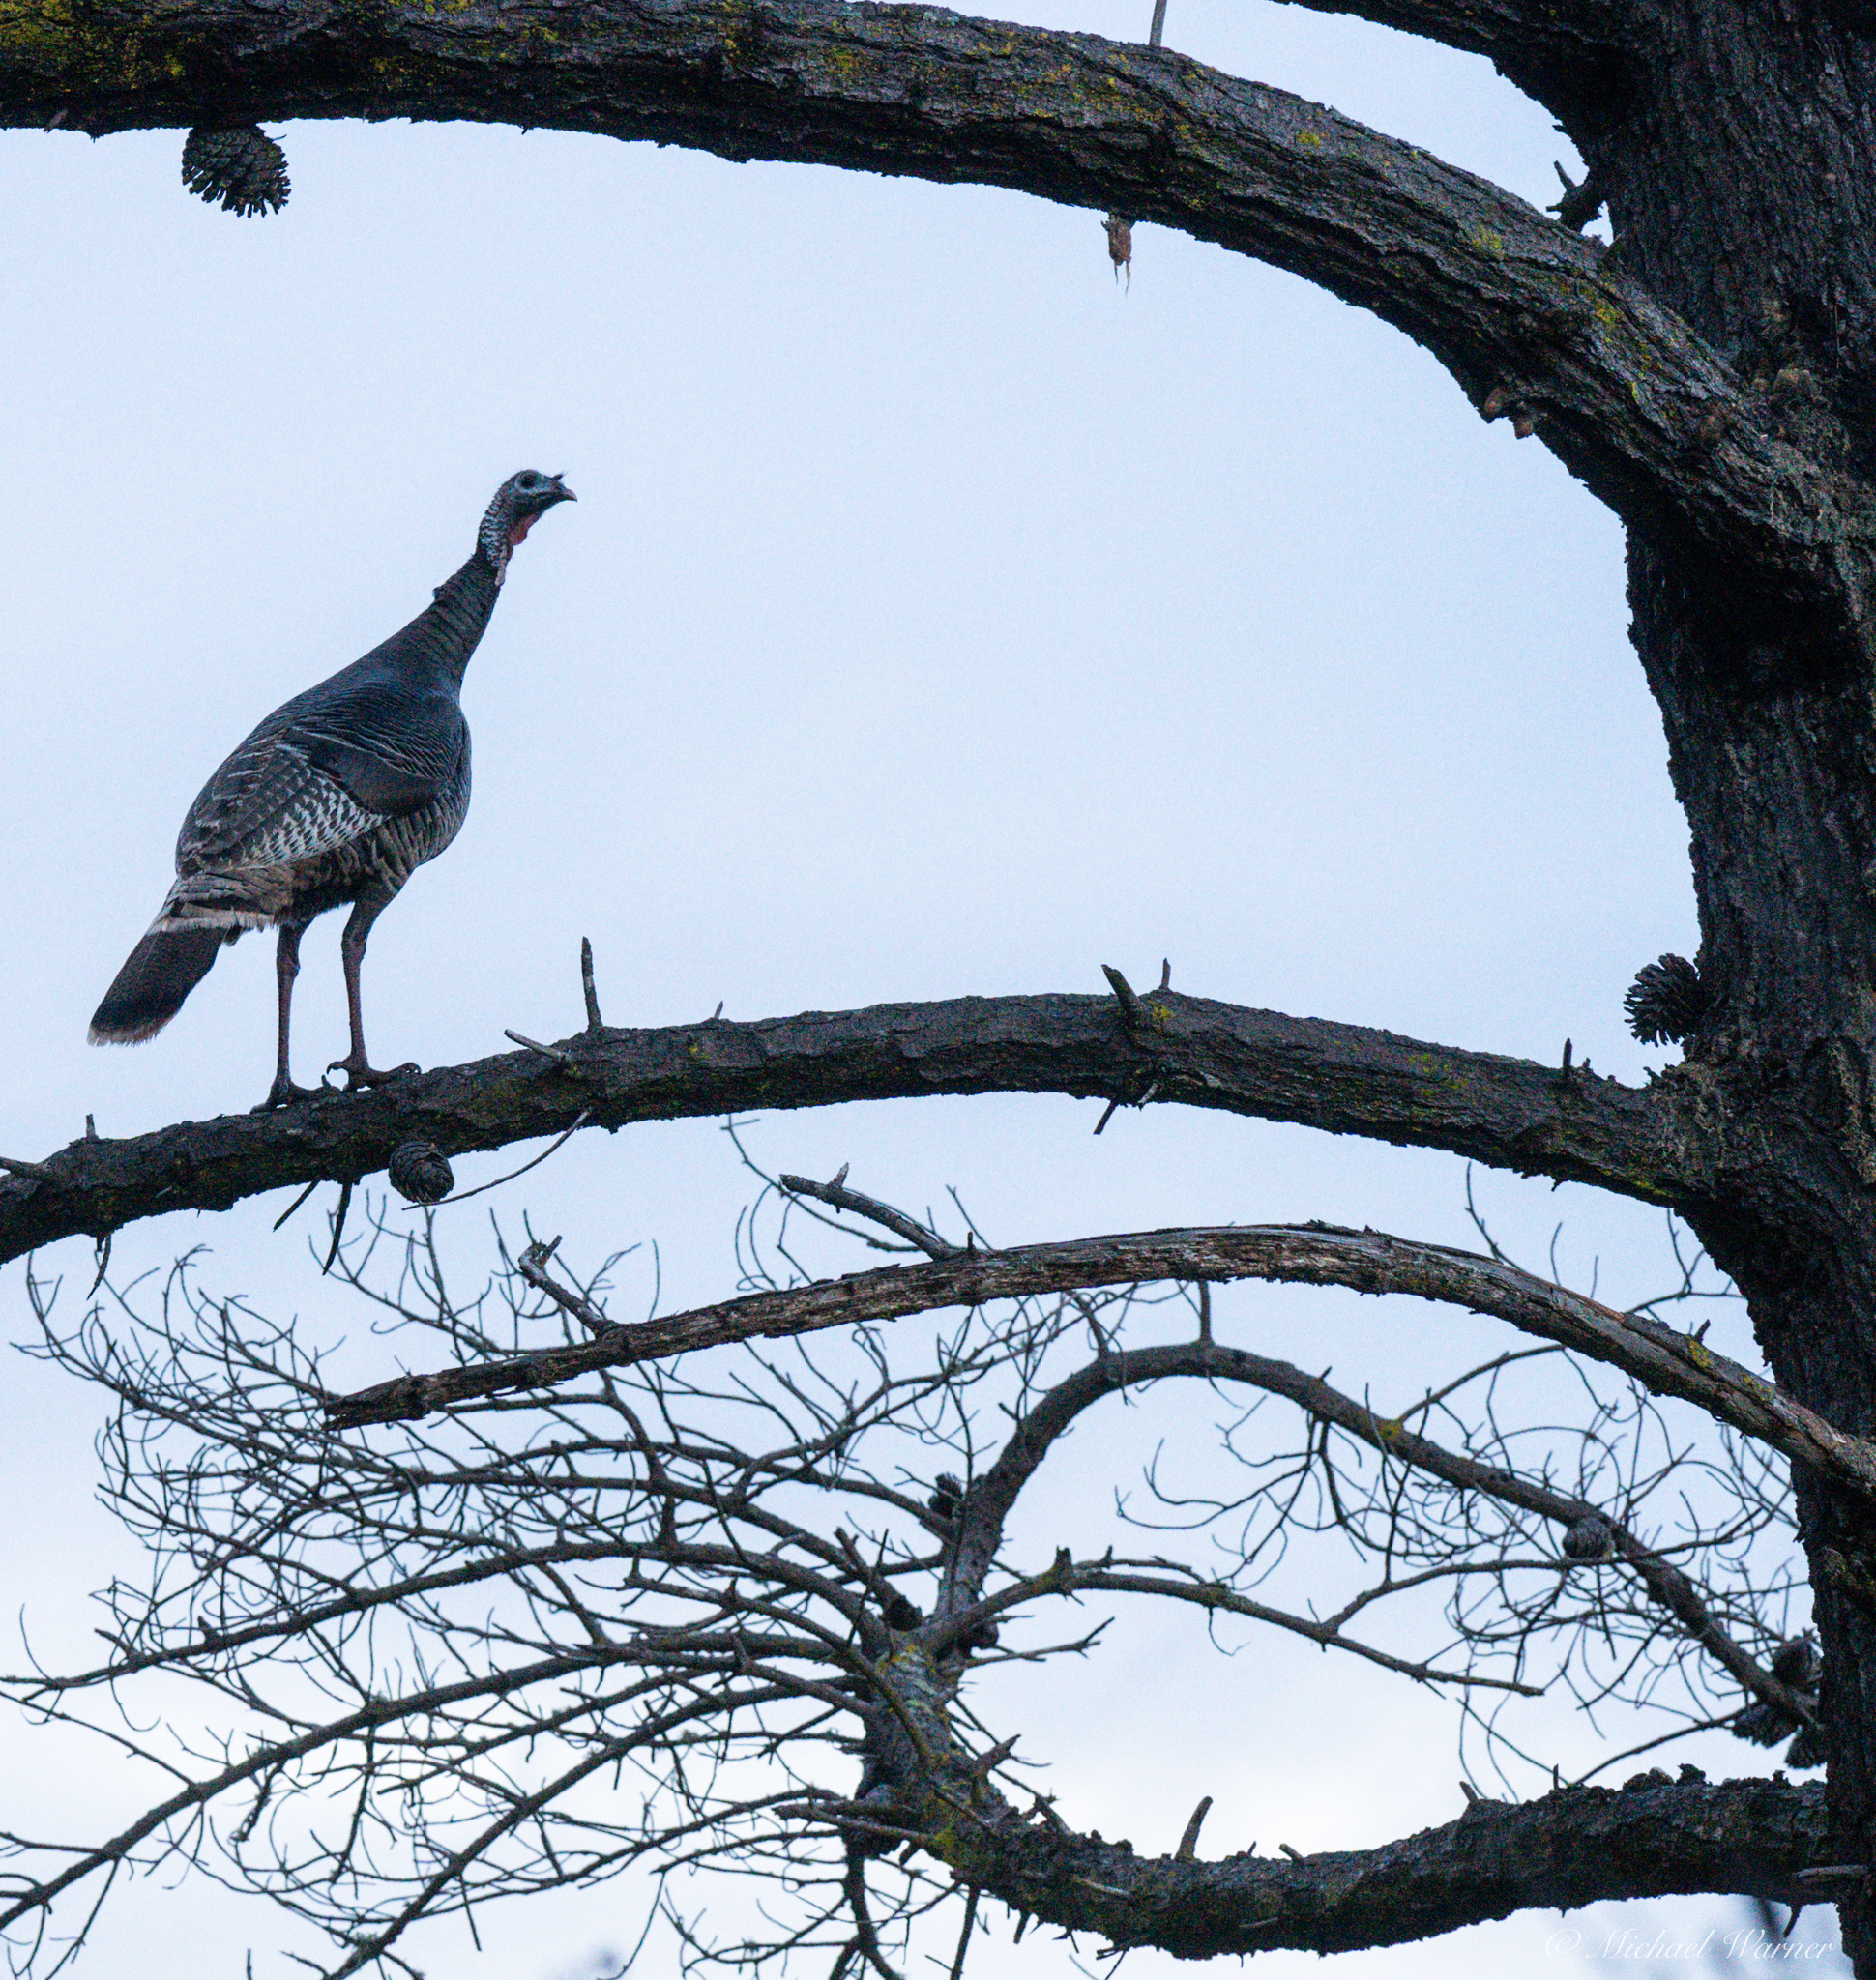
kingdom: Animalia
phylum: Chordata
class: Aves
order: Galliformes
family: Phasianidae
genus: Meleagris
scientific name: Meleagris gallopavo
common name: Wild turkey
